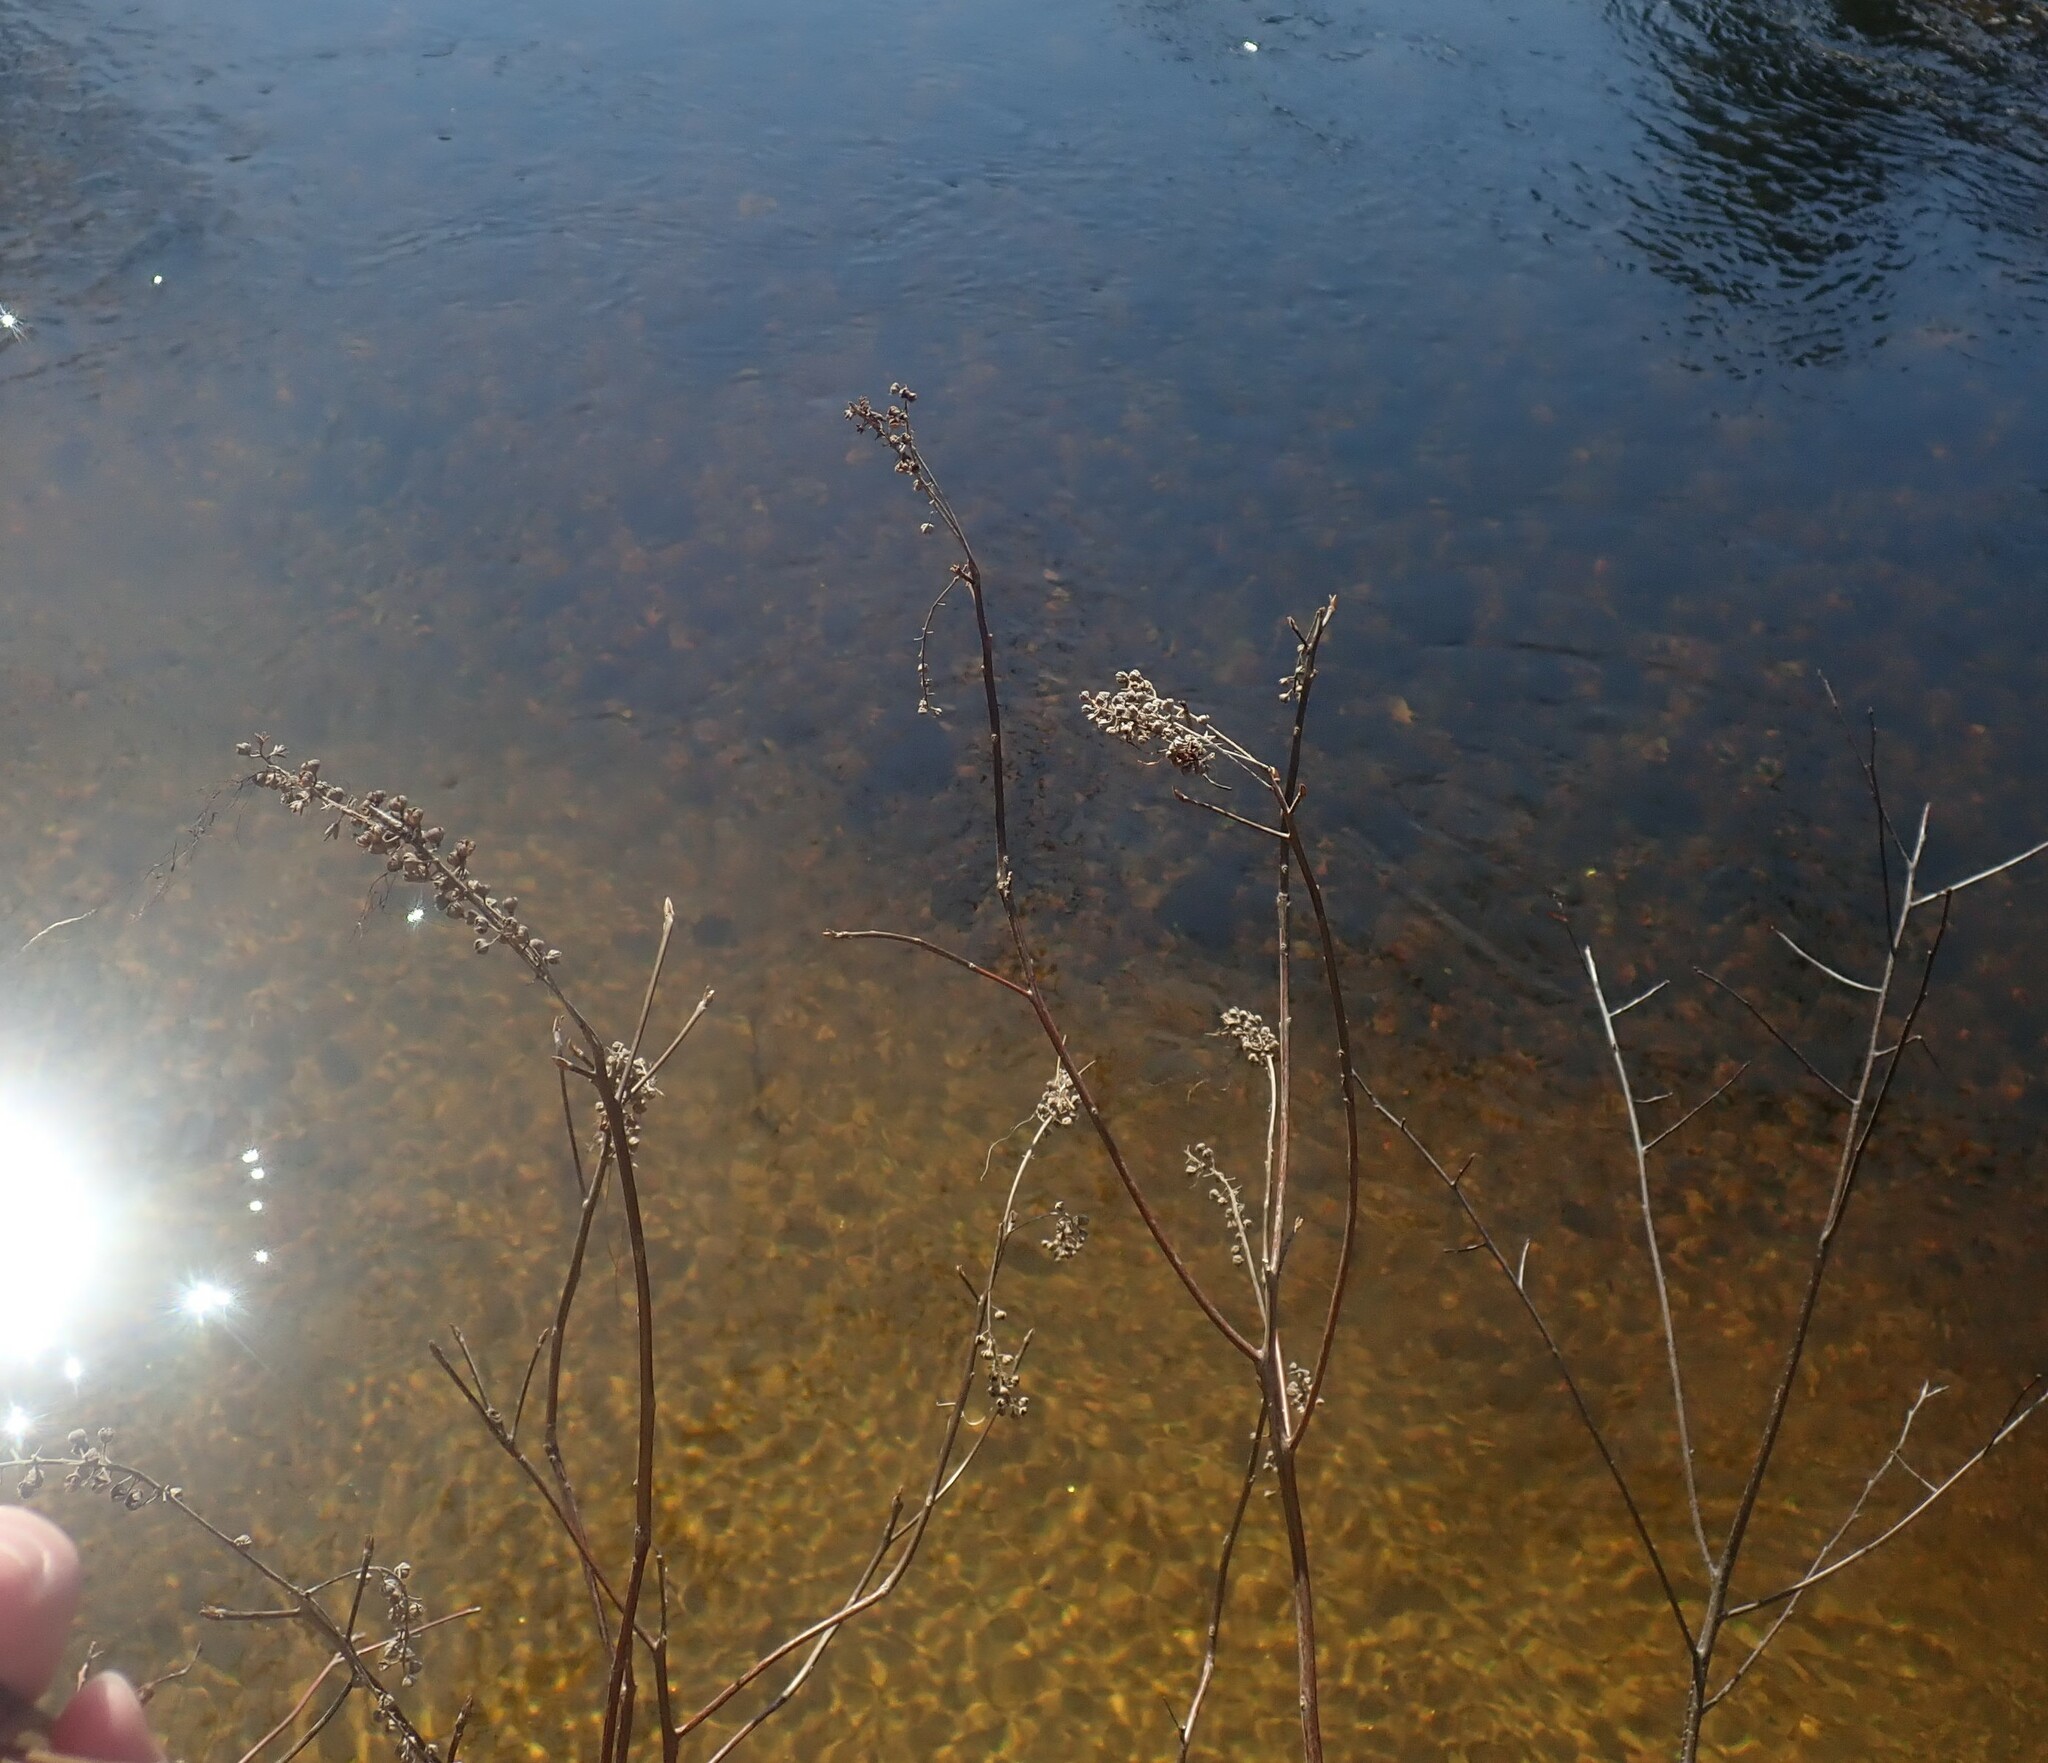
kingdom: Plantae
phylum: Tracheophyta
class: Magnoliopsida
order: Ericales
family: Clethraceae
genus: Clethra
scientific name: Clethra alnifolia
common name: Sweet pepperbush
